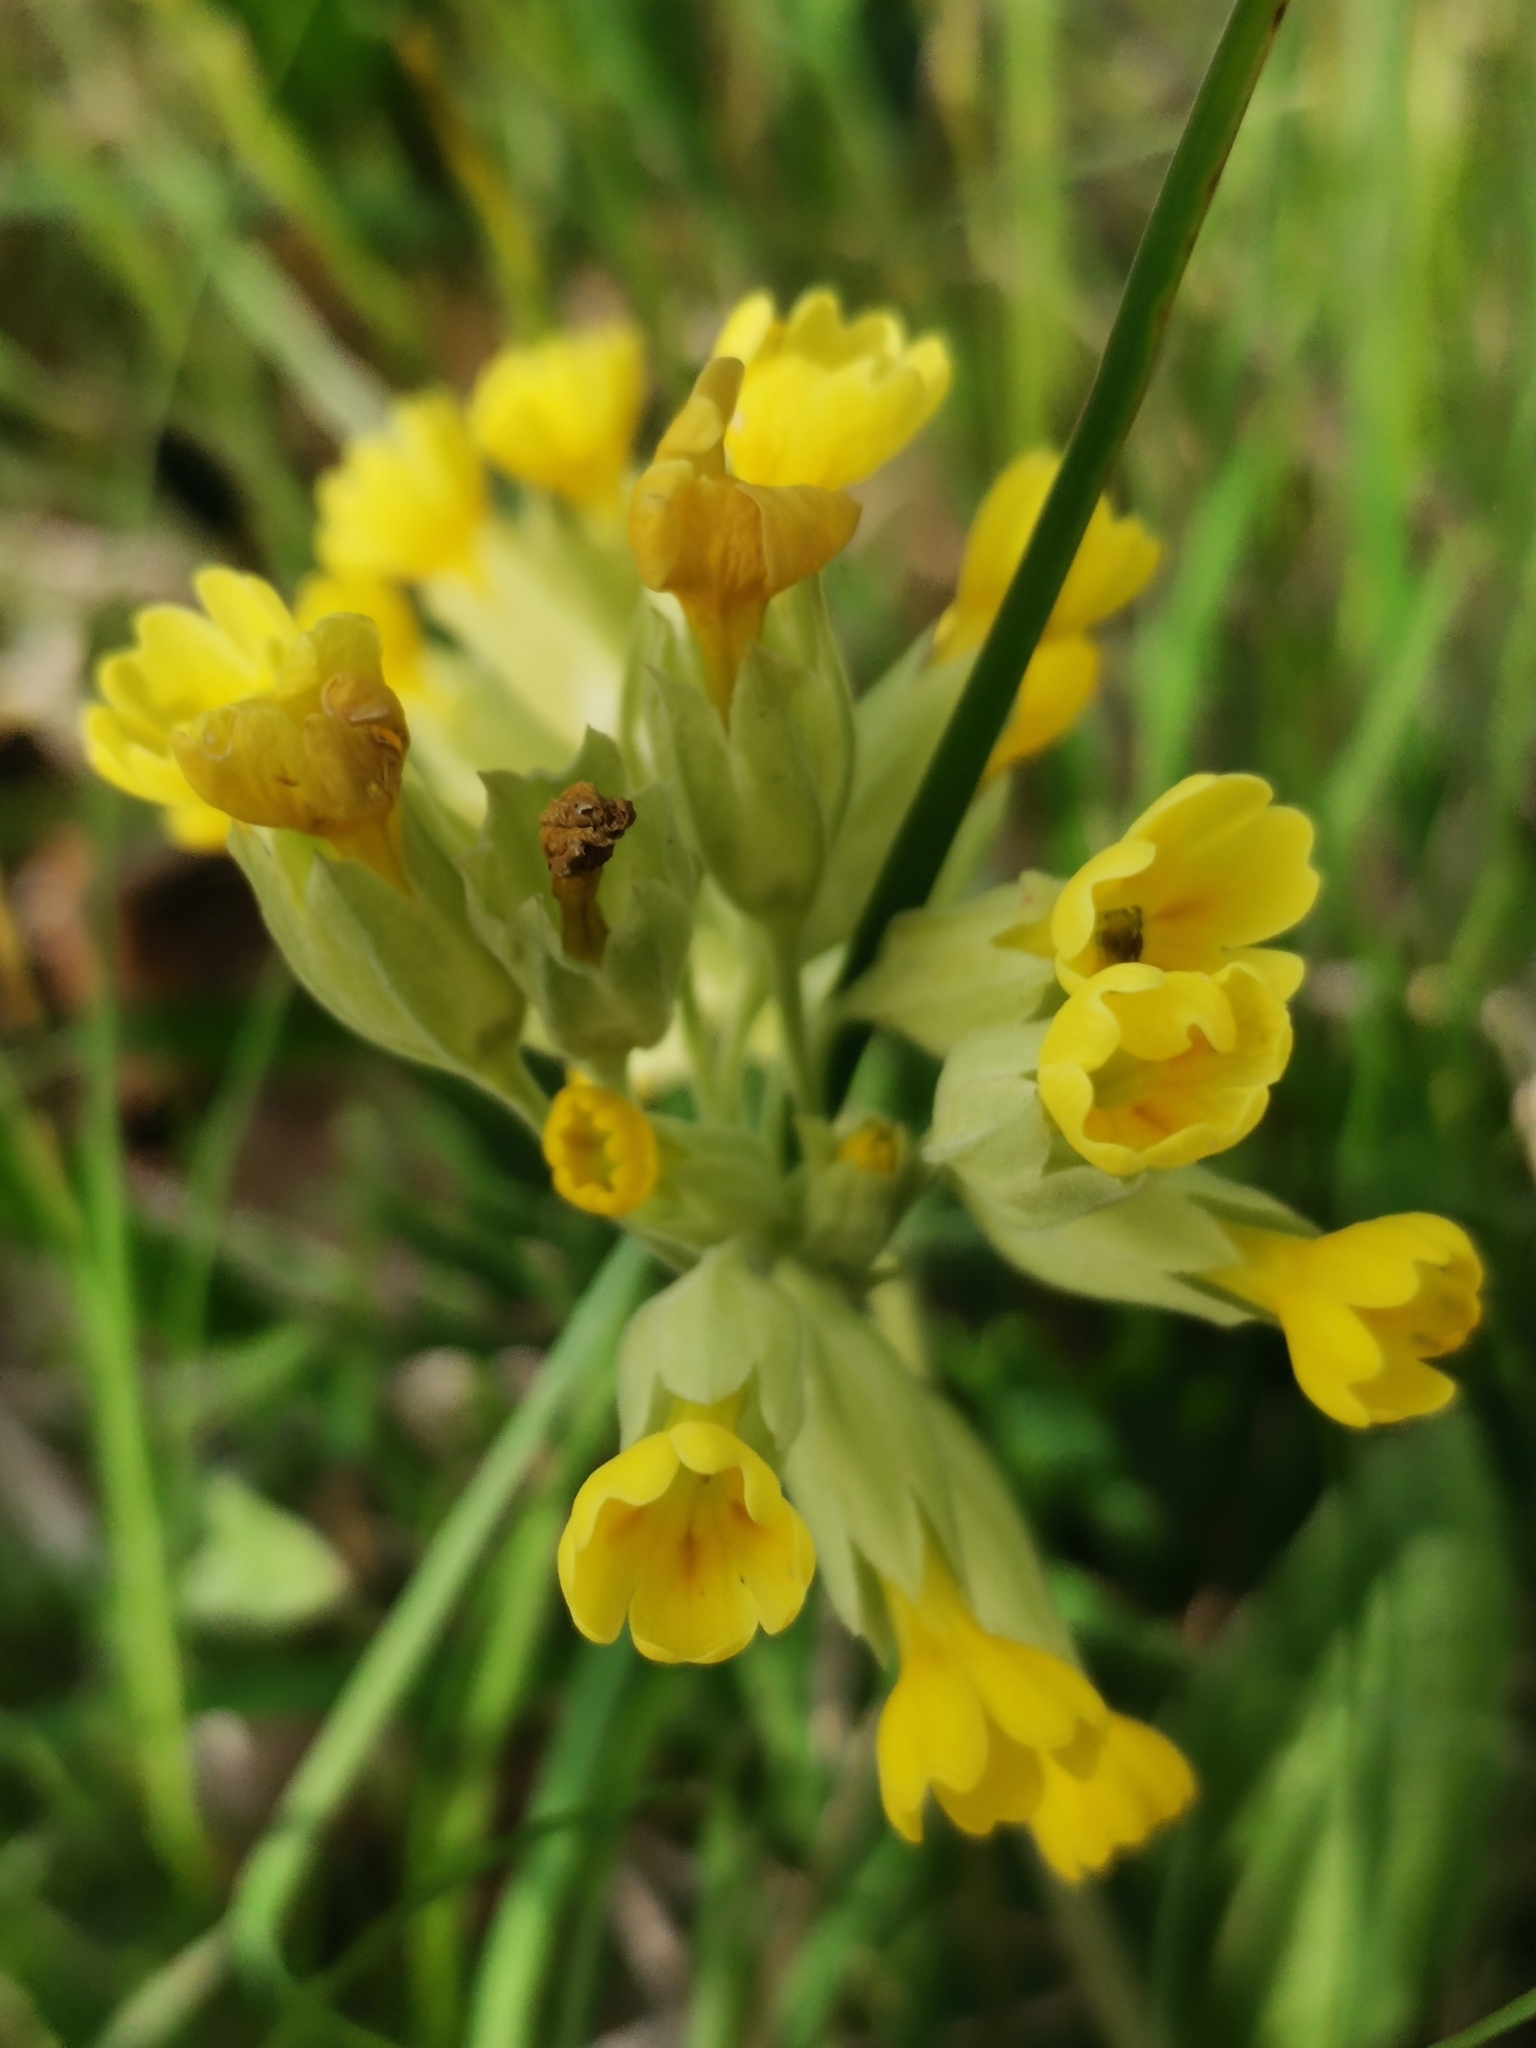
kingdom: Plantae
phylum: Tracheophyta
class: Magnoliopsida
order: Ericales
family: Primulaceae
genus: Primula
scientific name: Primula veris
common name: Cowslip
